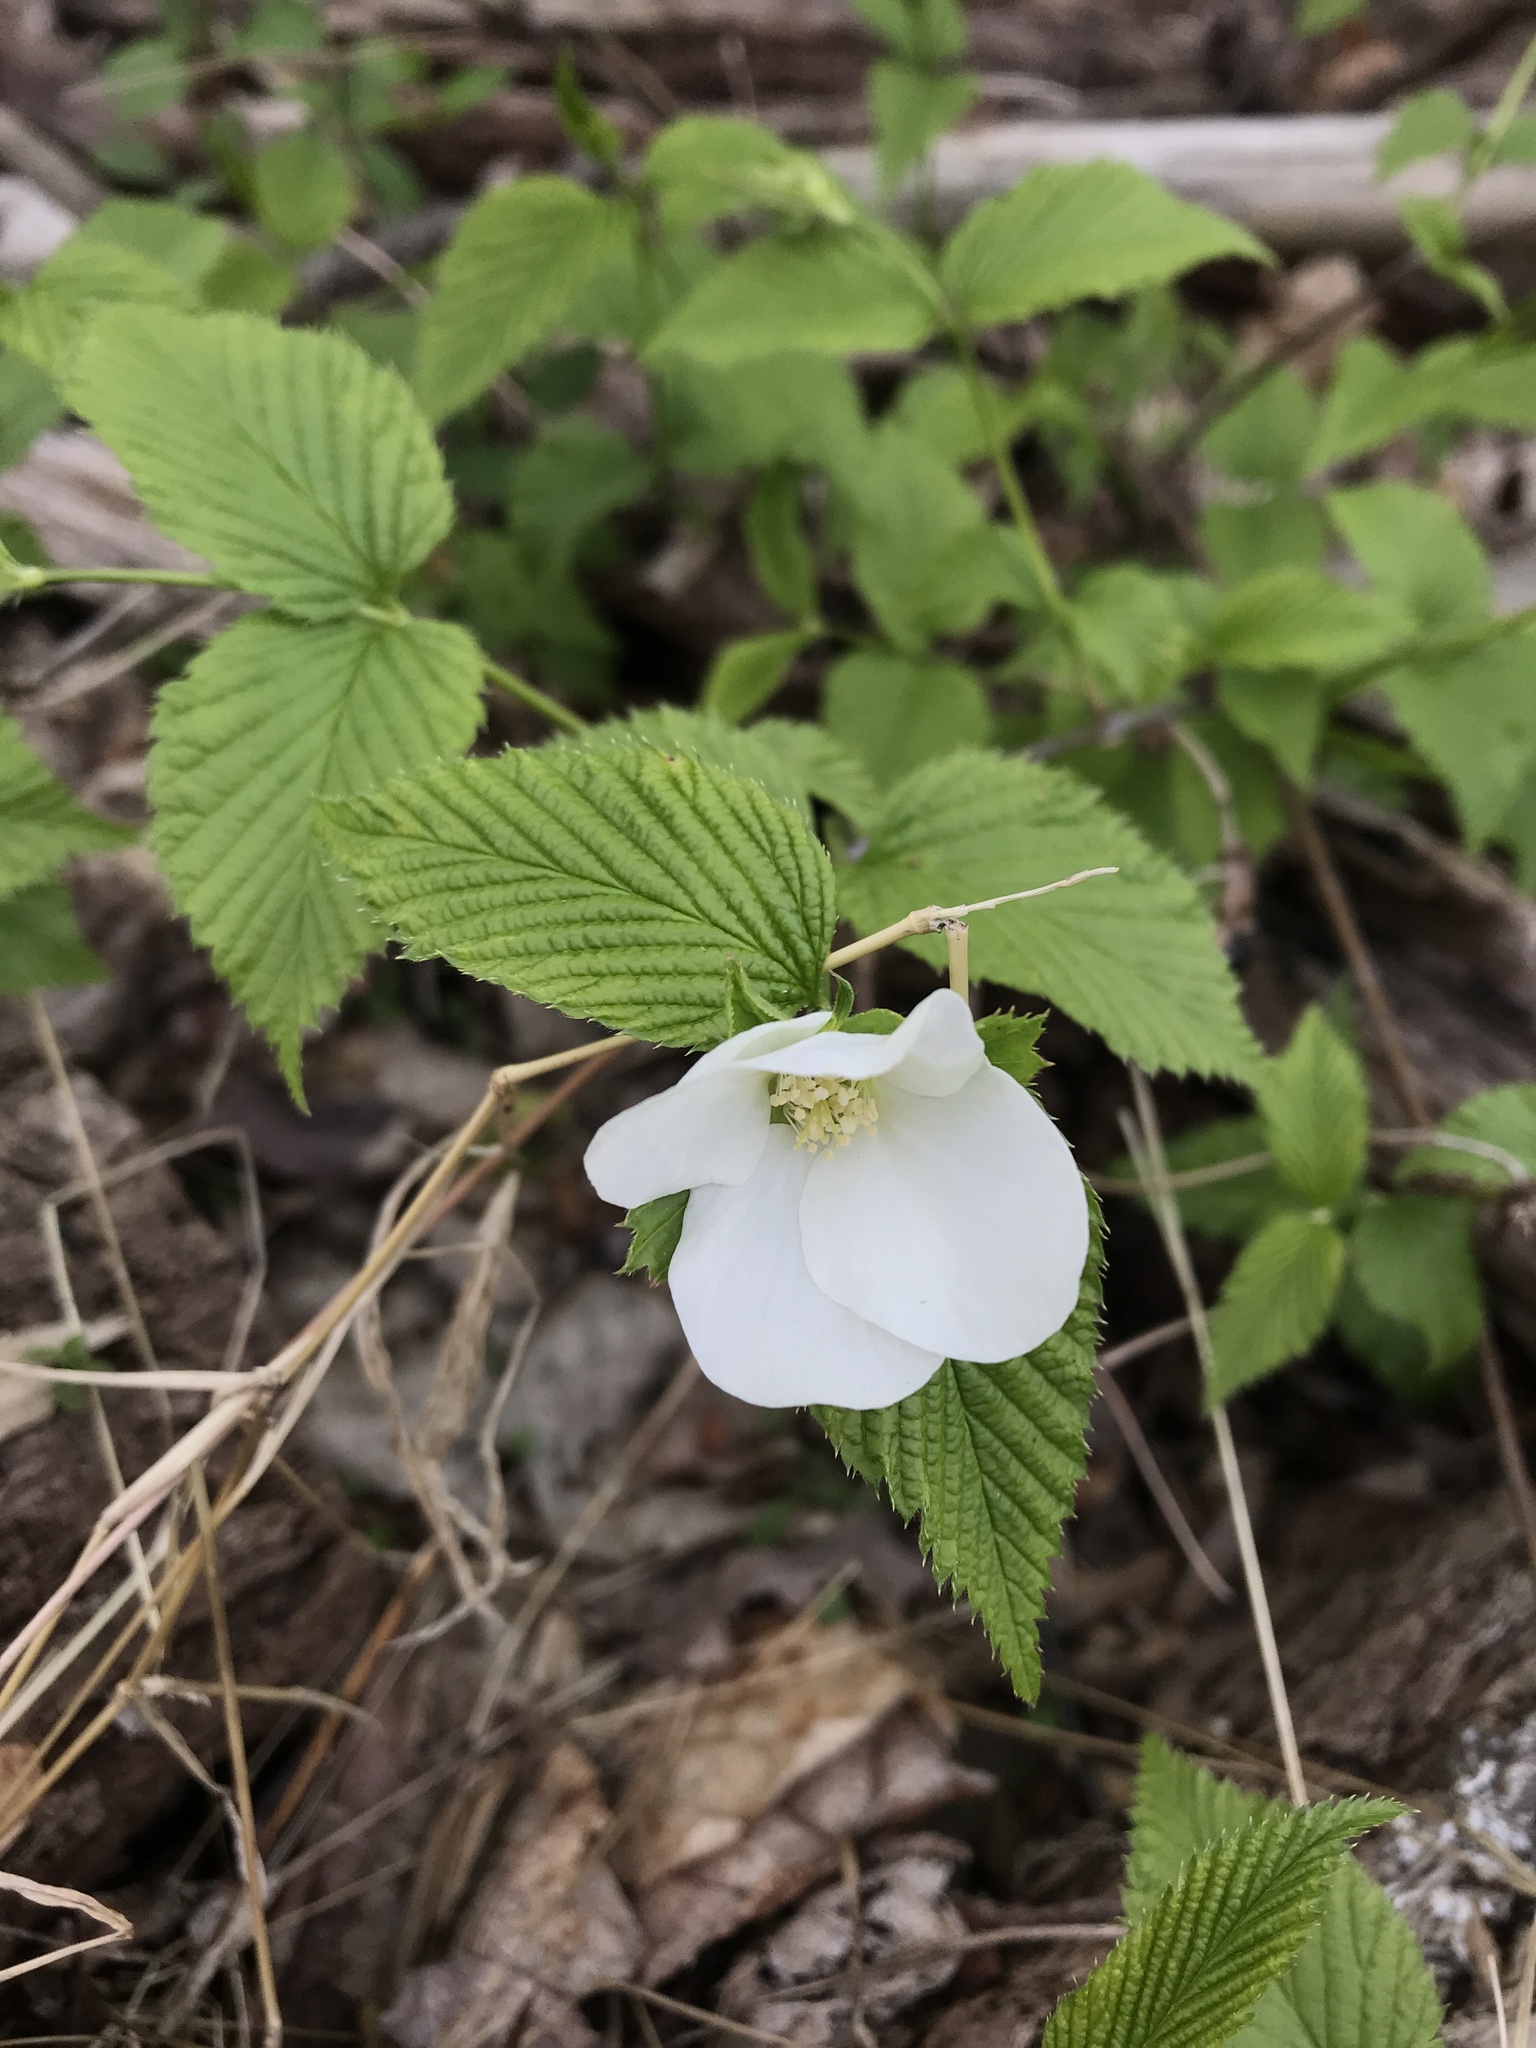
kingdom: Plantae
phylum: Tracheophyta
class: Magnoliopsida
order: Rosales
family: Rosaceae
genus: Rhodotypos
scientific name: Rhodotypos scandens
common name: Jetbead
